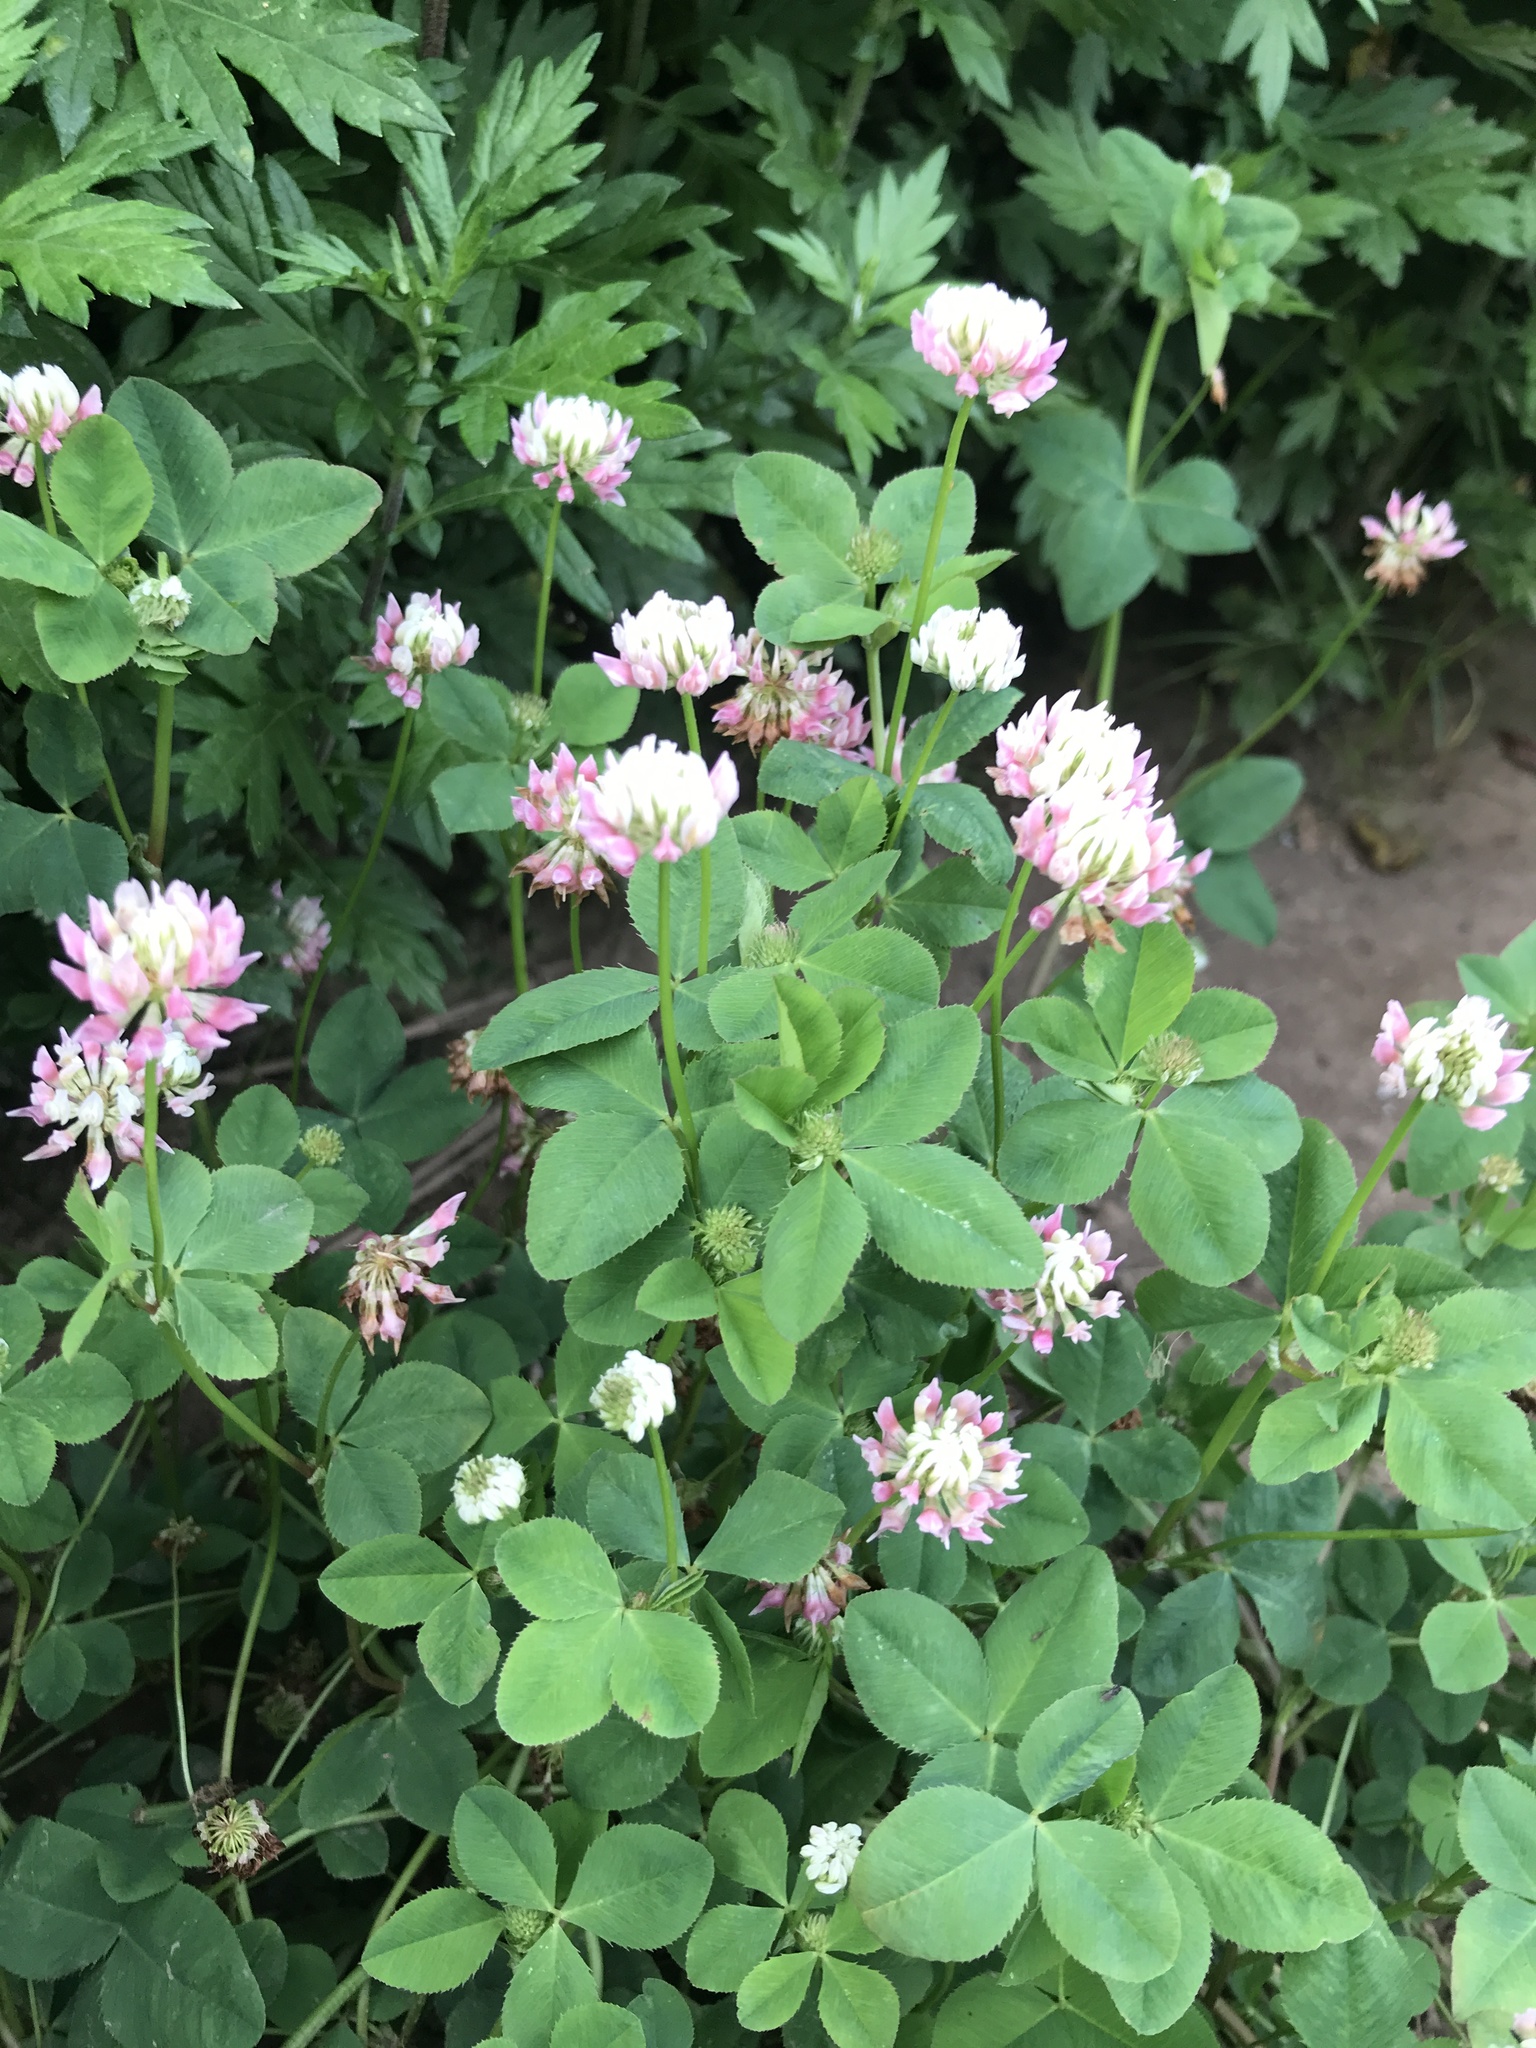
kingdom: Plantae
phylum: Tracheophyta
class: Magnoliopsida
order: Fabales
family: Fabaceae
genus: Trifolium
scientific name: Trifolium hybridum
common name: Alsike clover
